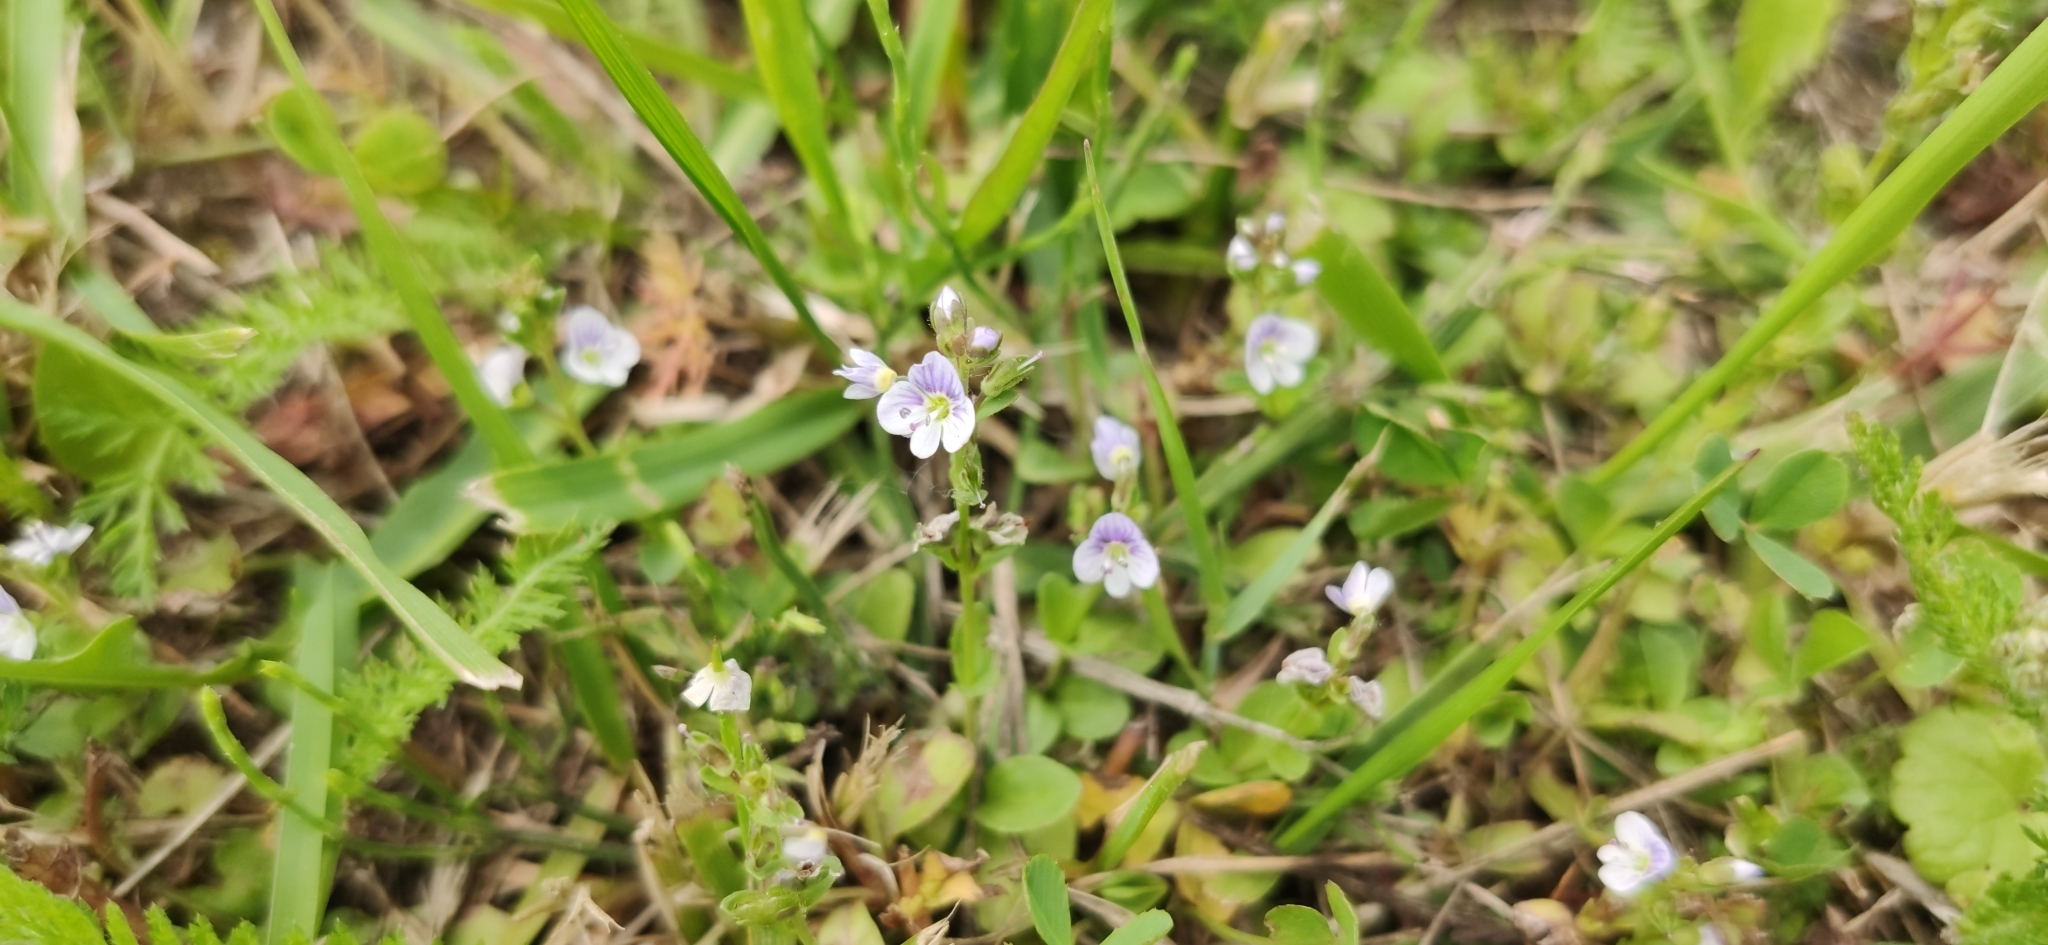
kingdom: Plantae
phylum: Tracheophyta
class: Magnoliopsida
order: Lamiales
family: Plantaginaceae
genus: Veronica
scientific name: Veronica serpyllifolia
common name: Thyme-leaved speedwell
